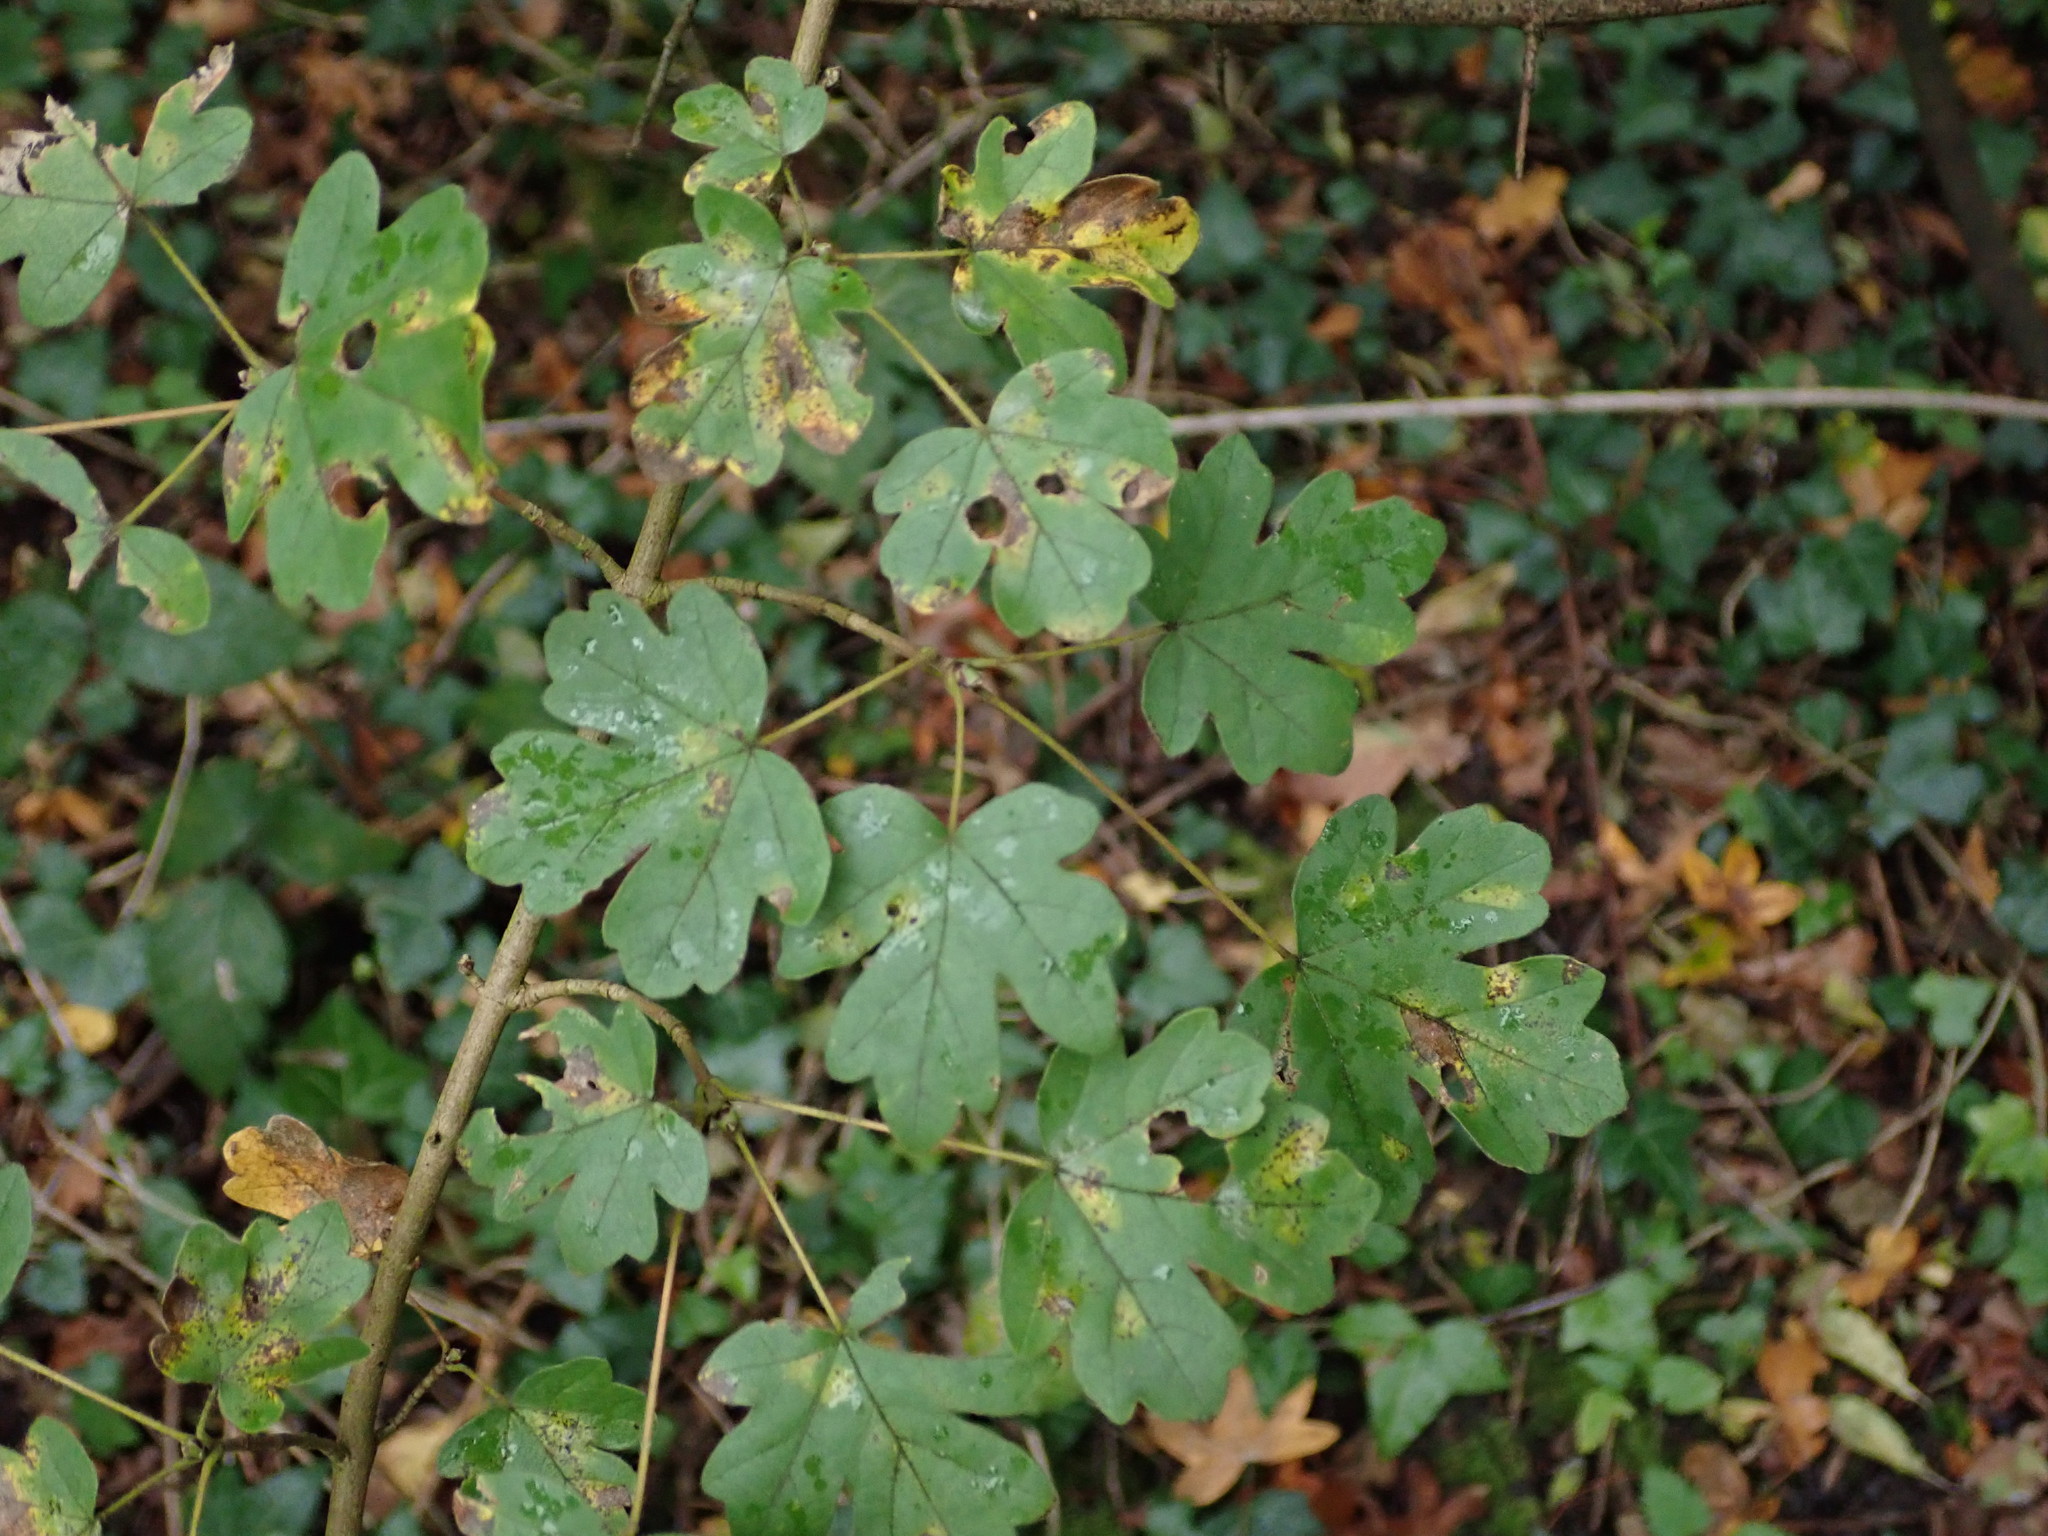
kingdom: Plantae
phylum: Tracheophyta
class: Magnoliopsida
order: Sapindales
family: Sapindaceae
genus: Acer
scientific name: Acer campestre
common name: Field maple
